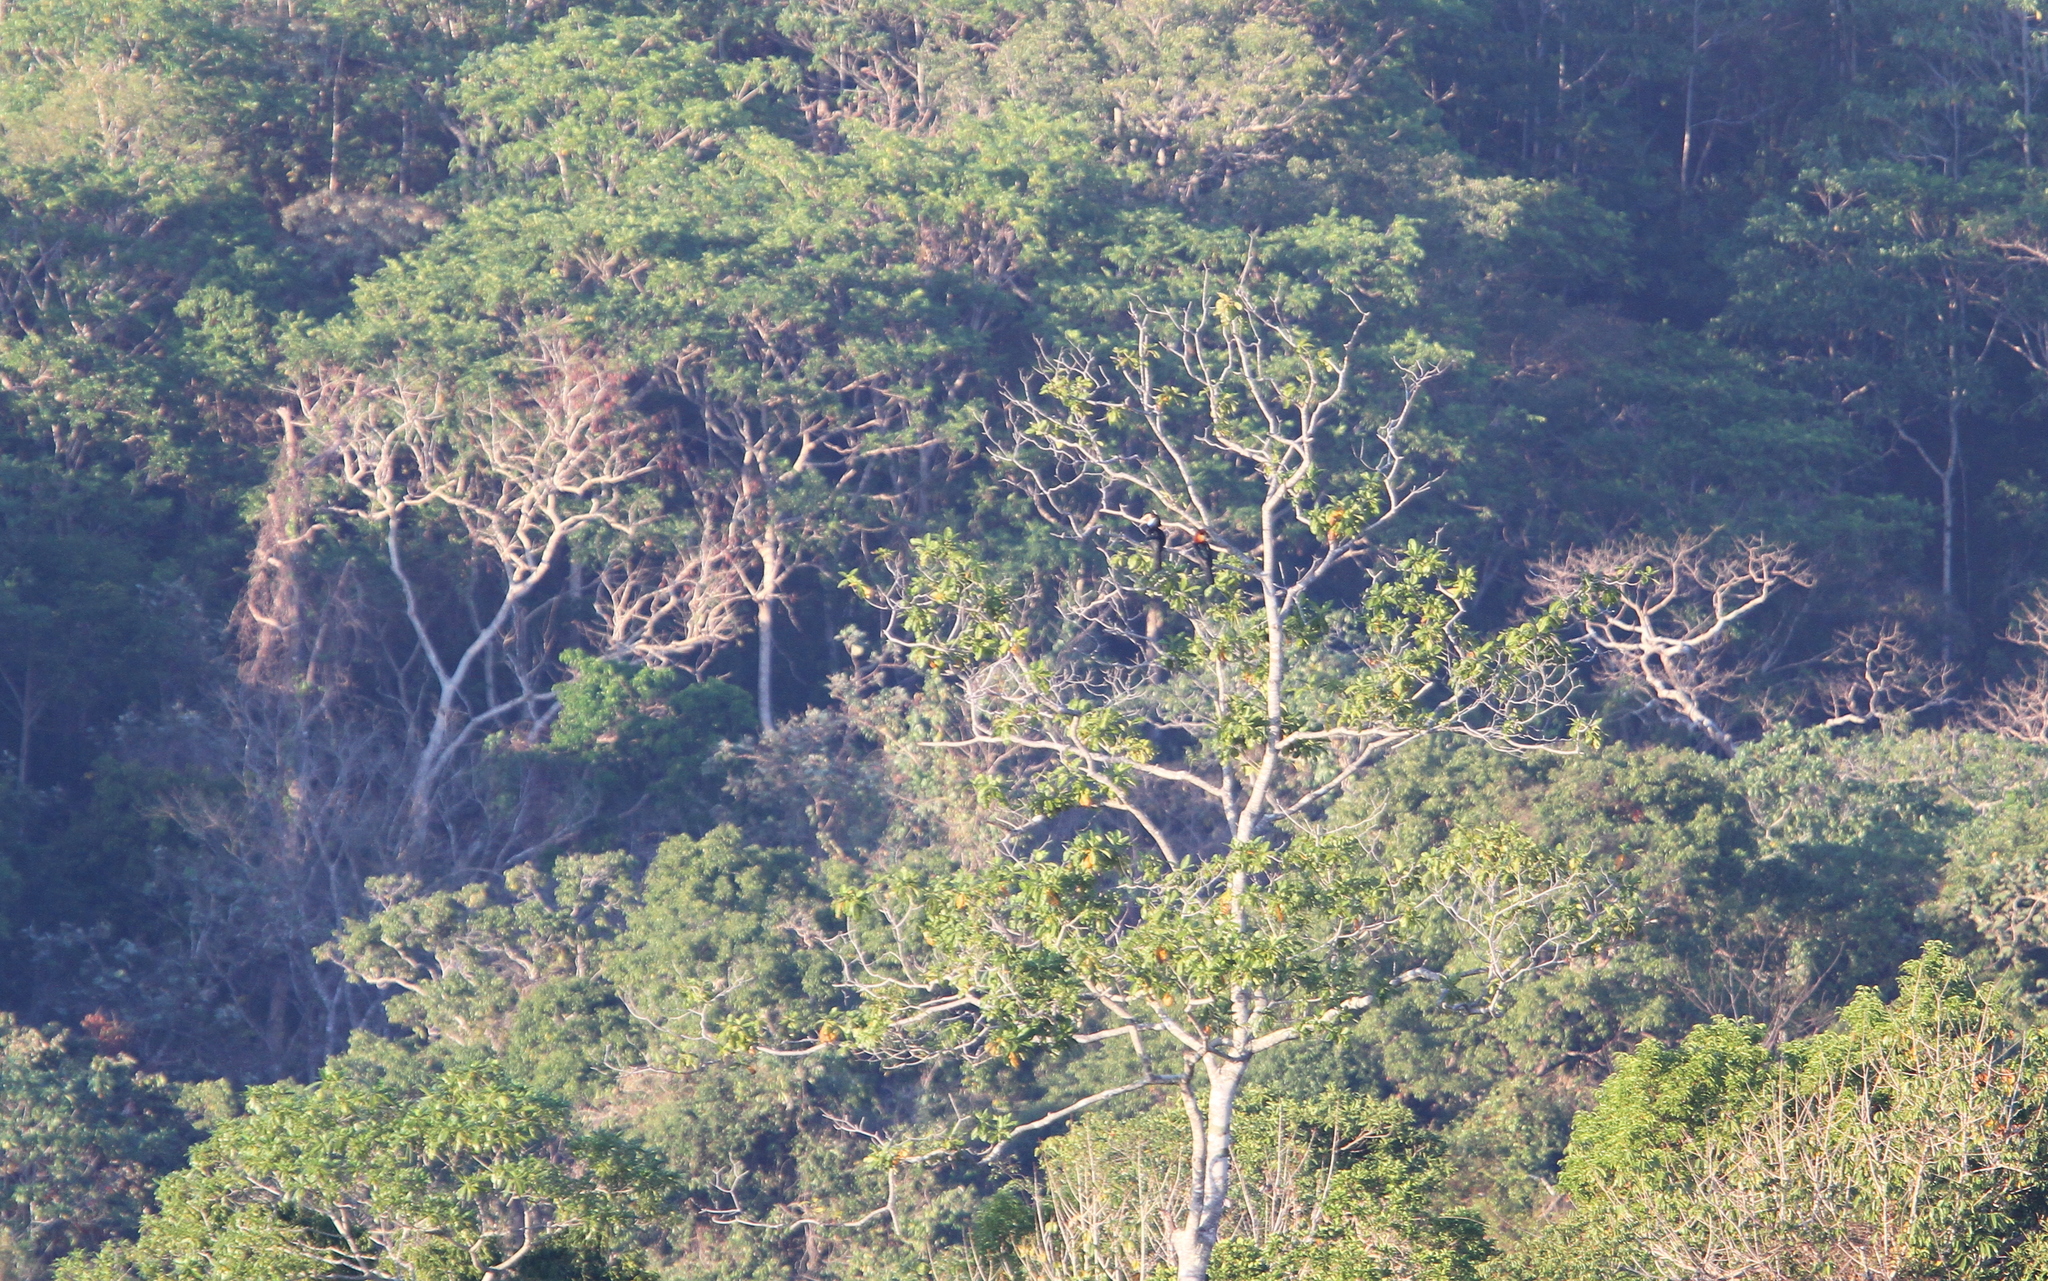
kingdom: Animalia
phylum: Chordata
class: Aves
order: Bucerotiformes
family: Bucerotidae
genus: Rhyticeros
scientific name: Rhyticeros everetti
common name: Sumba hornbill
